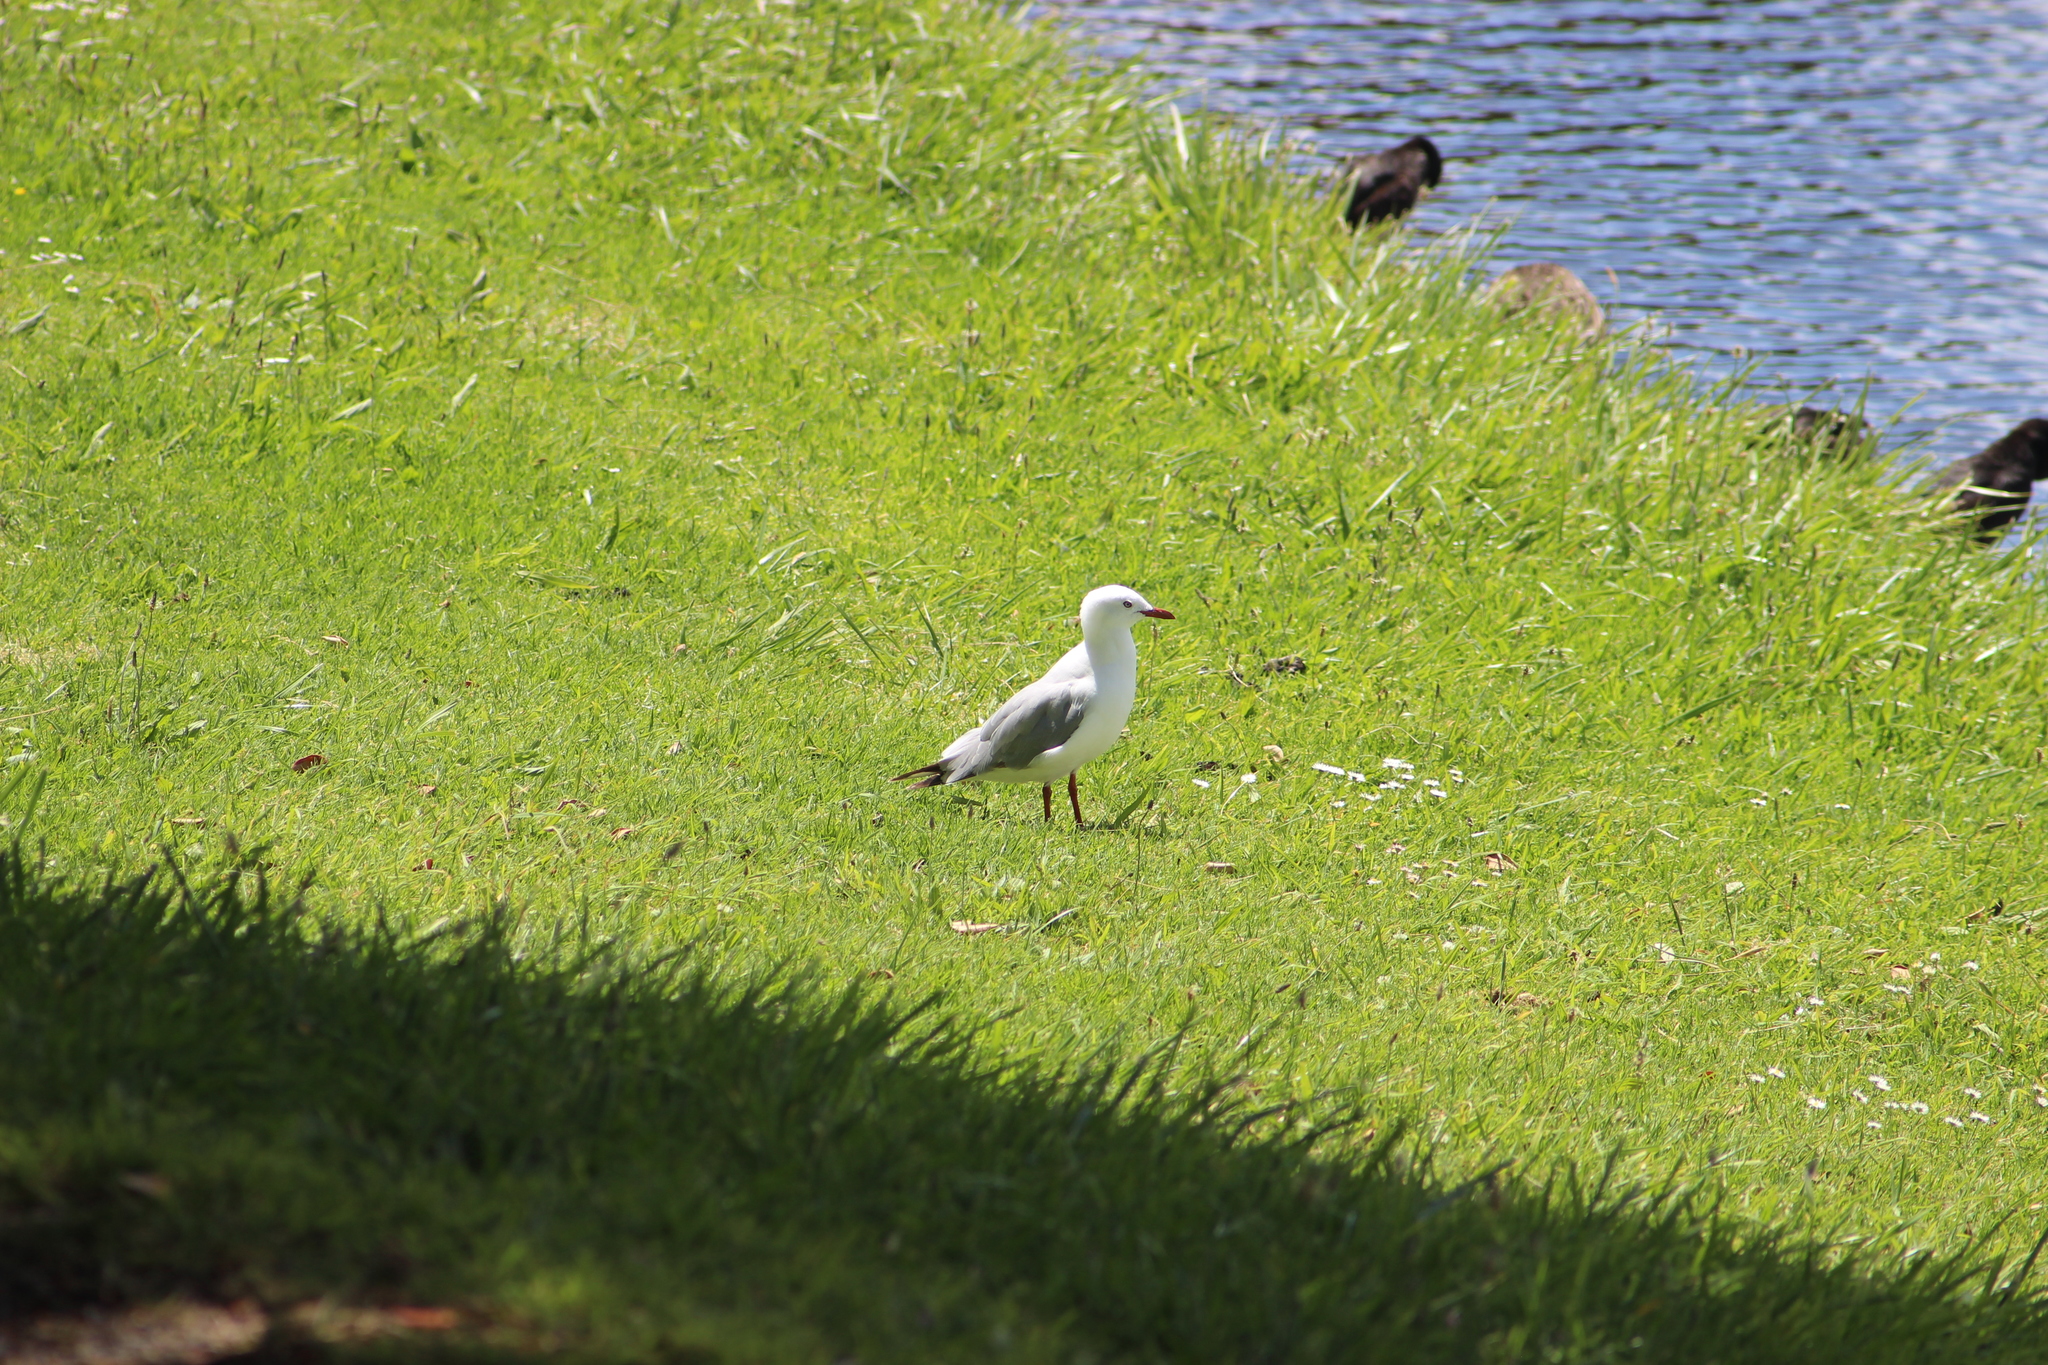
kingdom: Animalia
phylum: Chordata
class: Aves
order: Charadriiformes
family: Laridae
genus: Chroicocephalus
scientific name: Chroicocephalus novaehollandiae
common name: Silver gull
